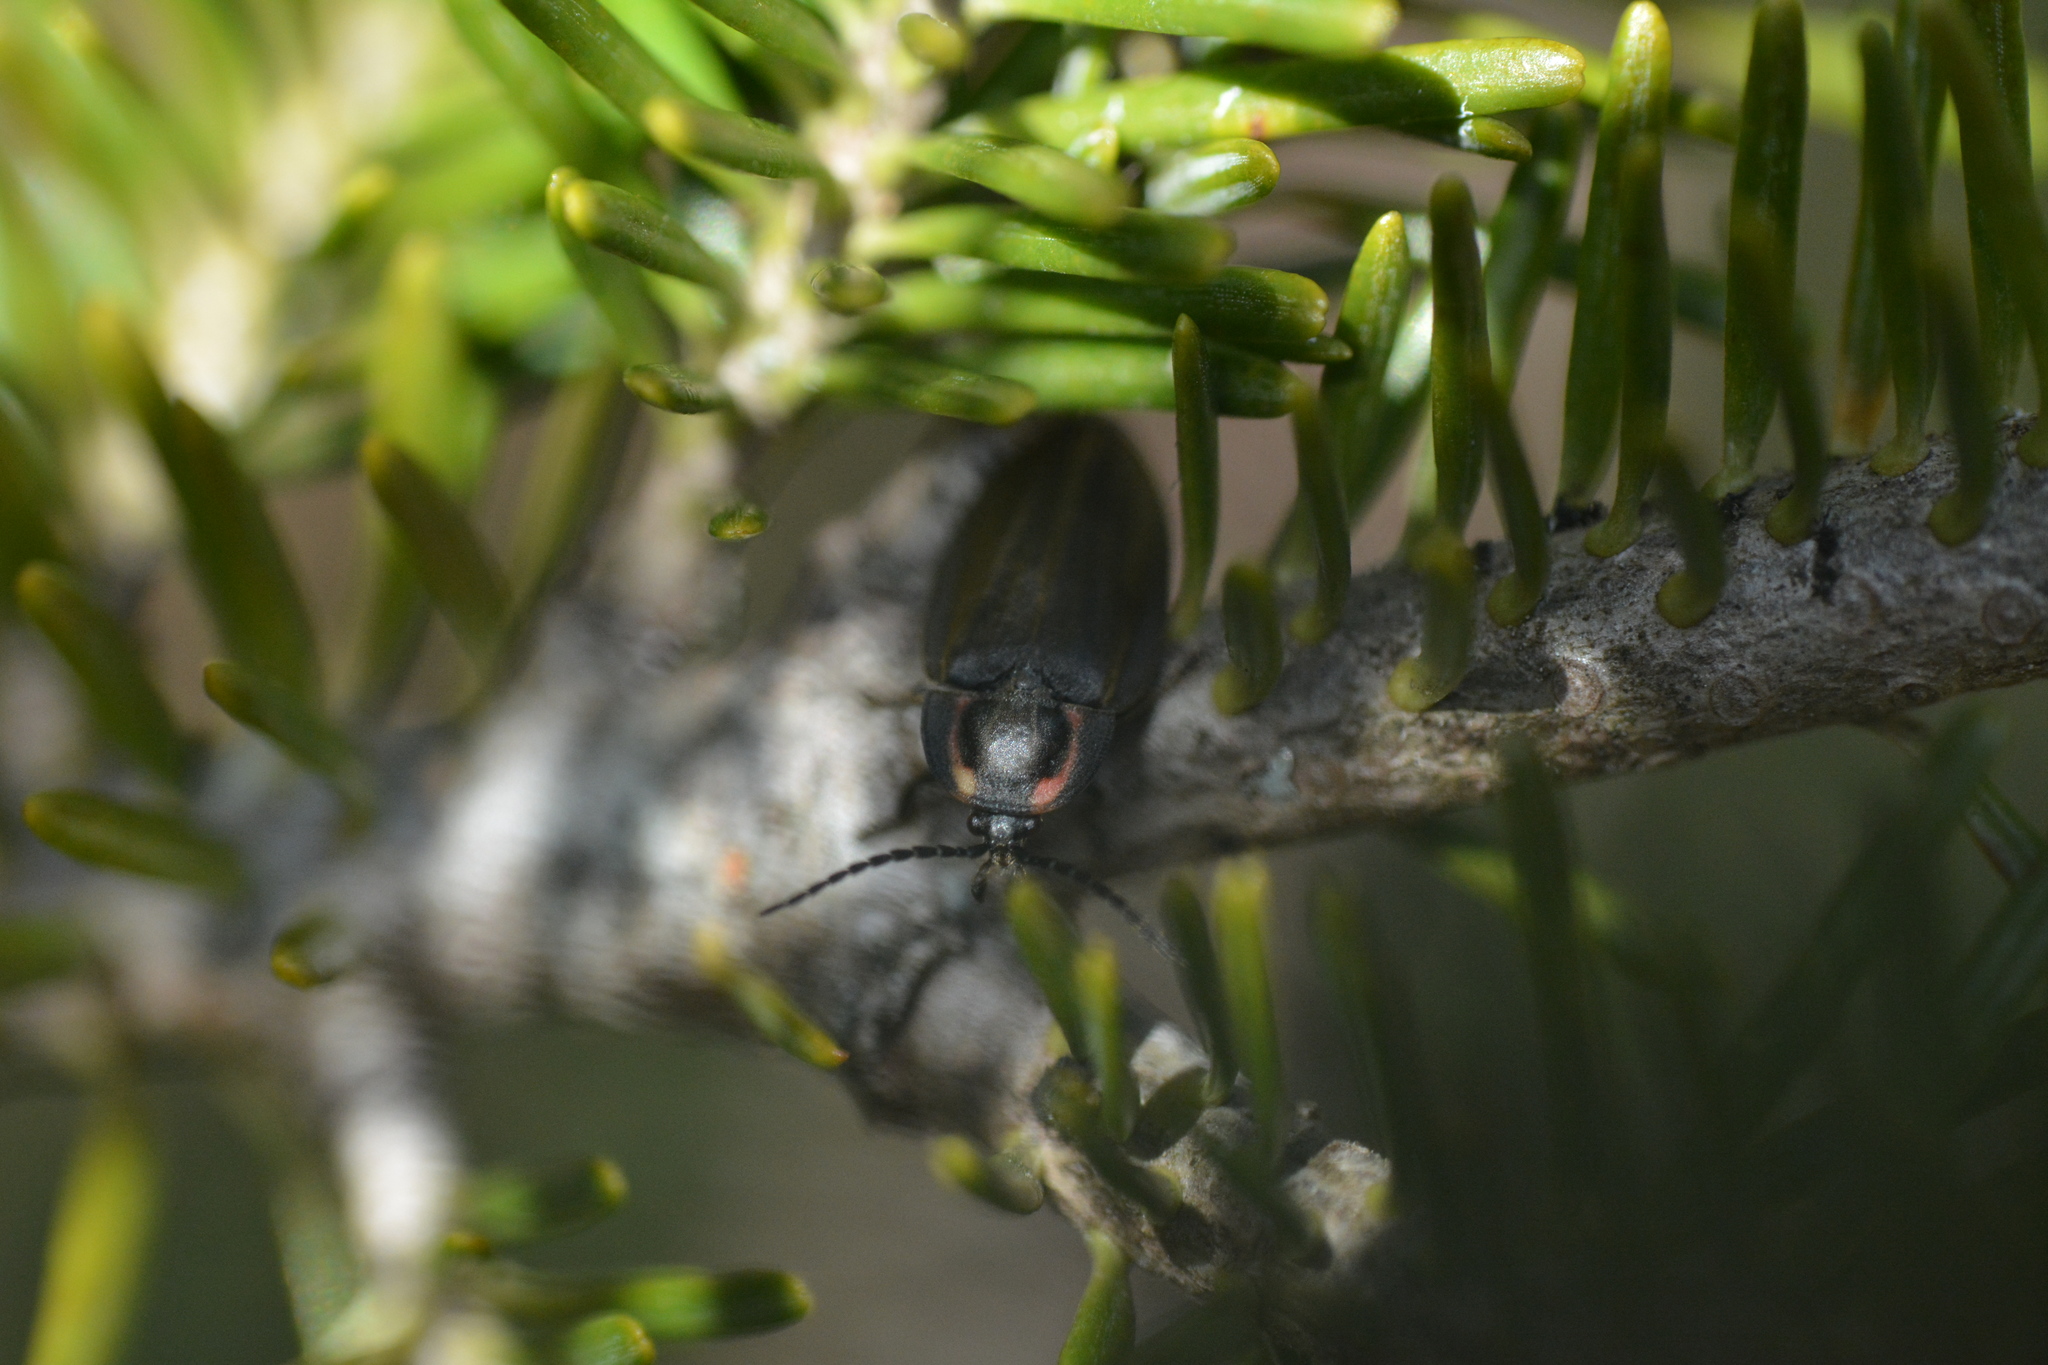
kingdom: Animalia
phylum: Arthropoda
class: Insecta
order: Coleoptera
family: Lampyridae
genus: Photinus
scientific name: Photinus corrusca
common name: Winter firefly
